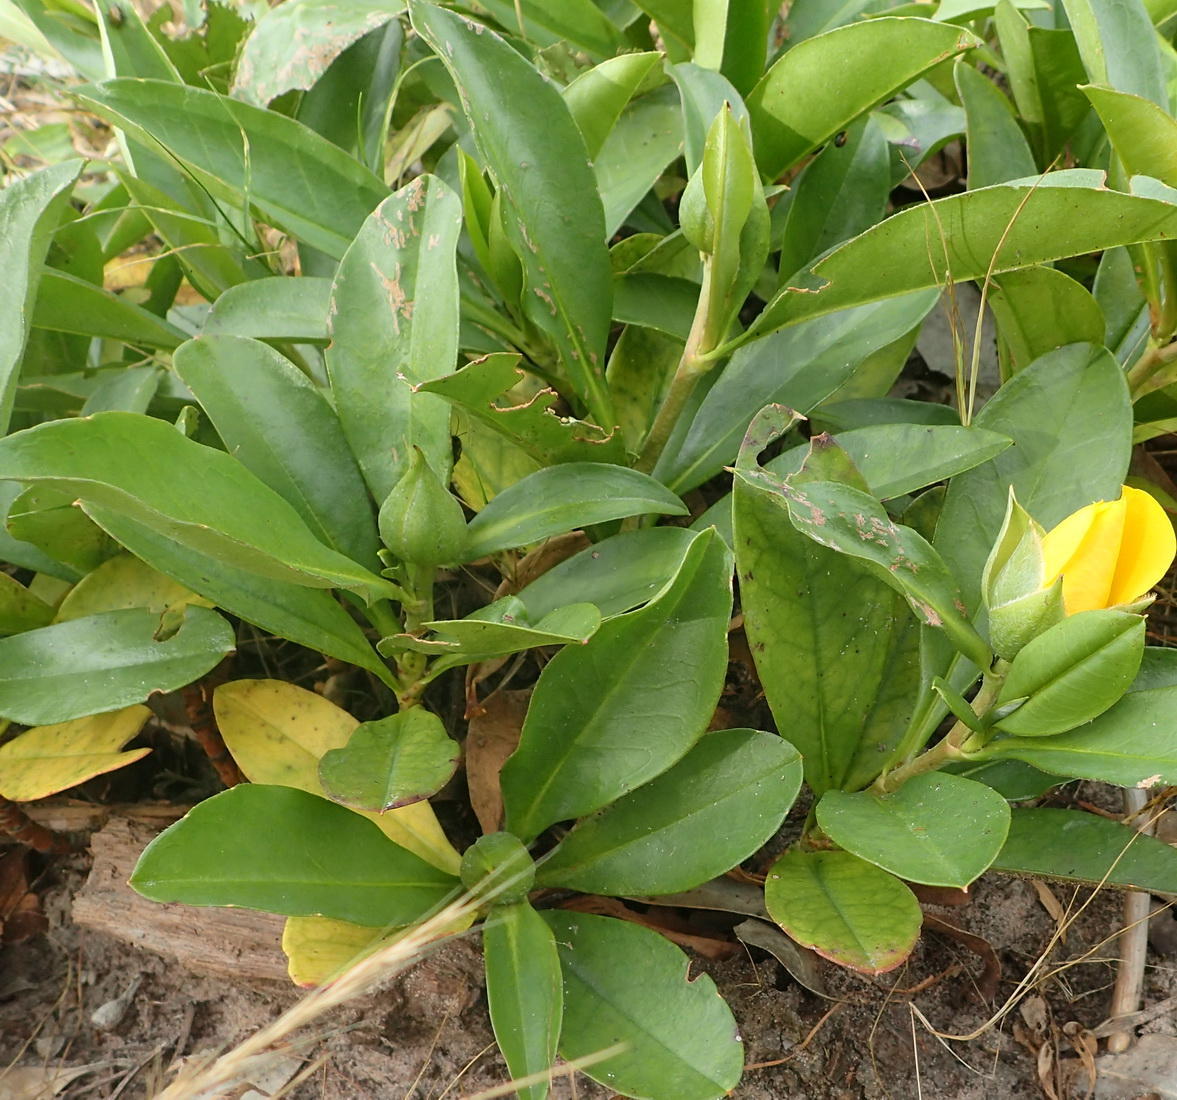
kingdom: Plantae
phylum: Tracheophyta
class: Magnoliopsida
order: Dilleniales
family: Dilleniaceae
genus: Hibbertia
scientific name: Hibbertia scandens
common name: Climbing guinea-flower
